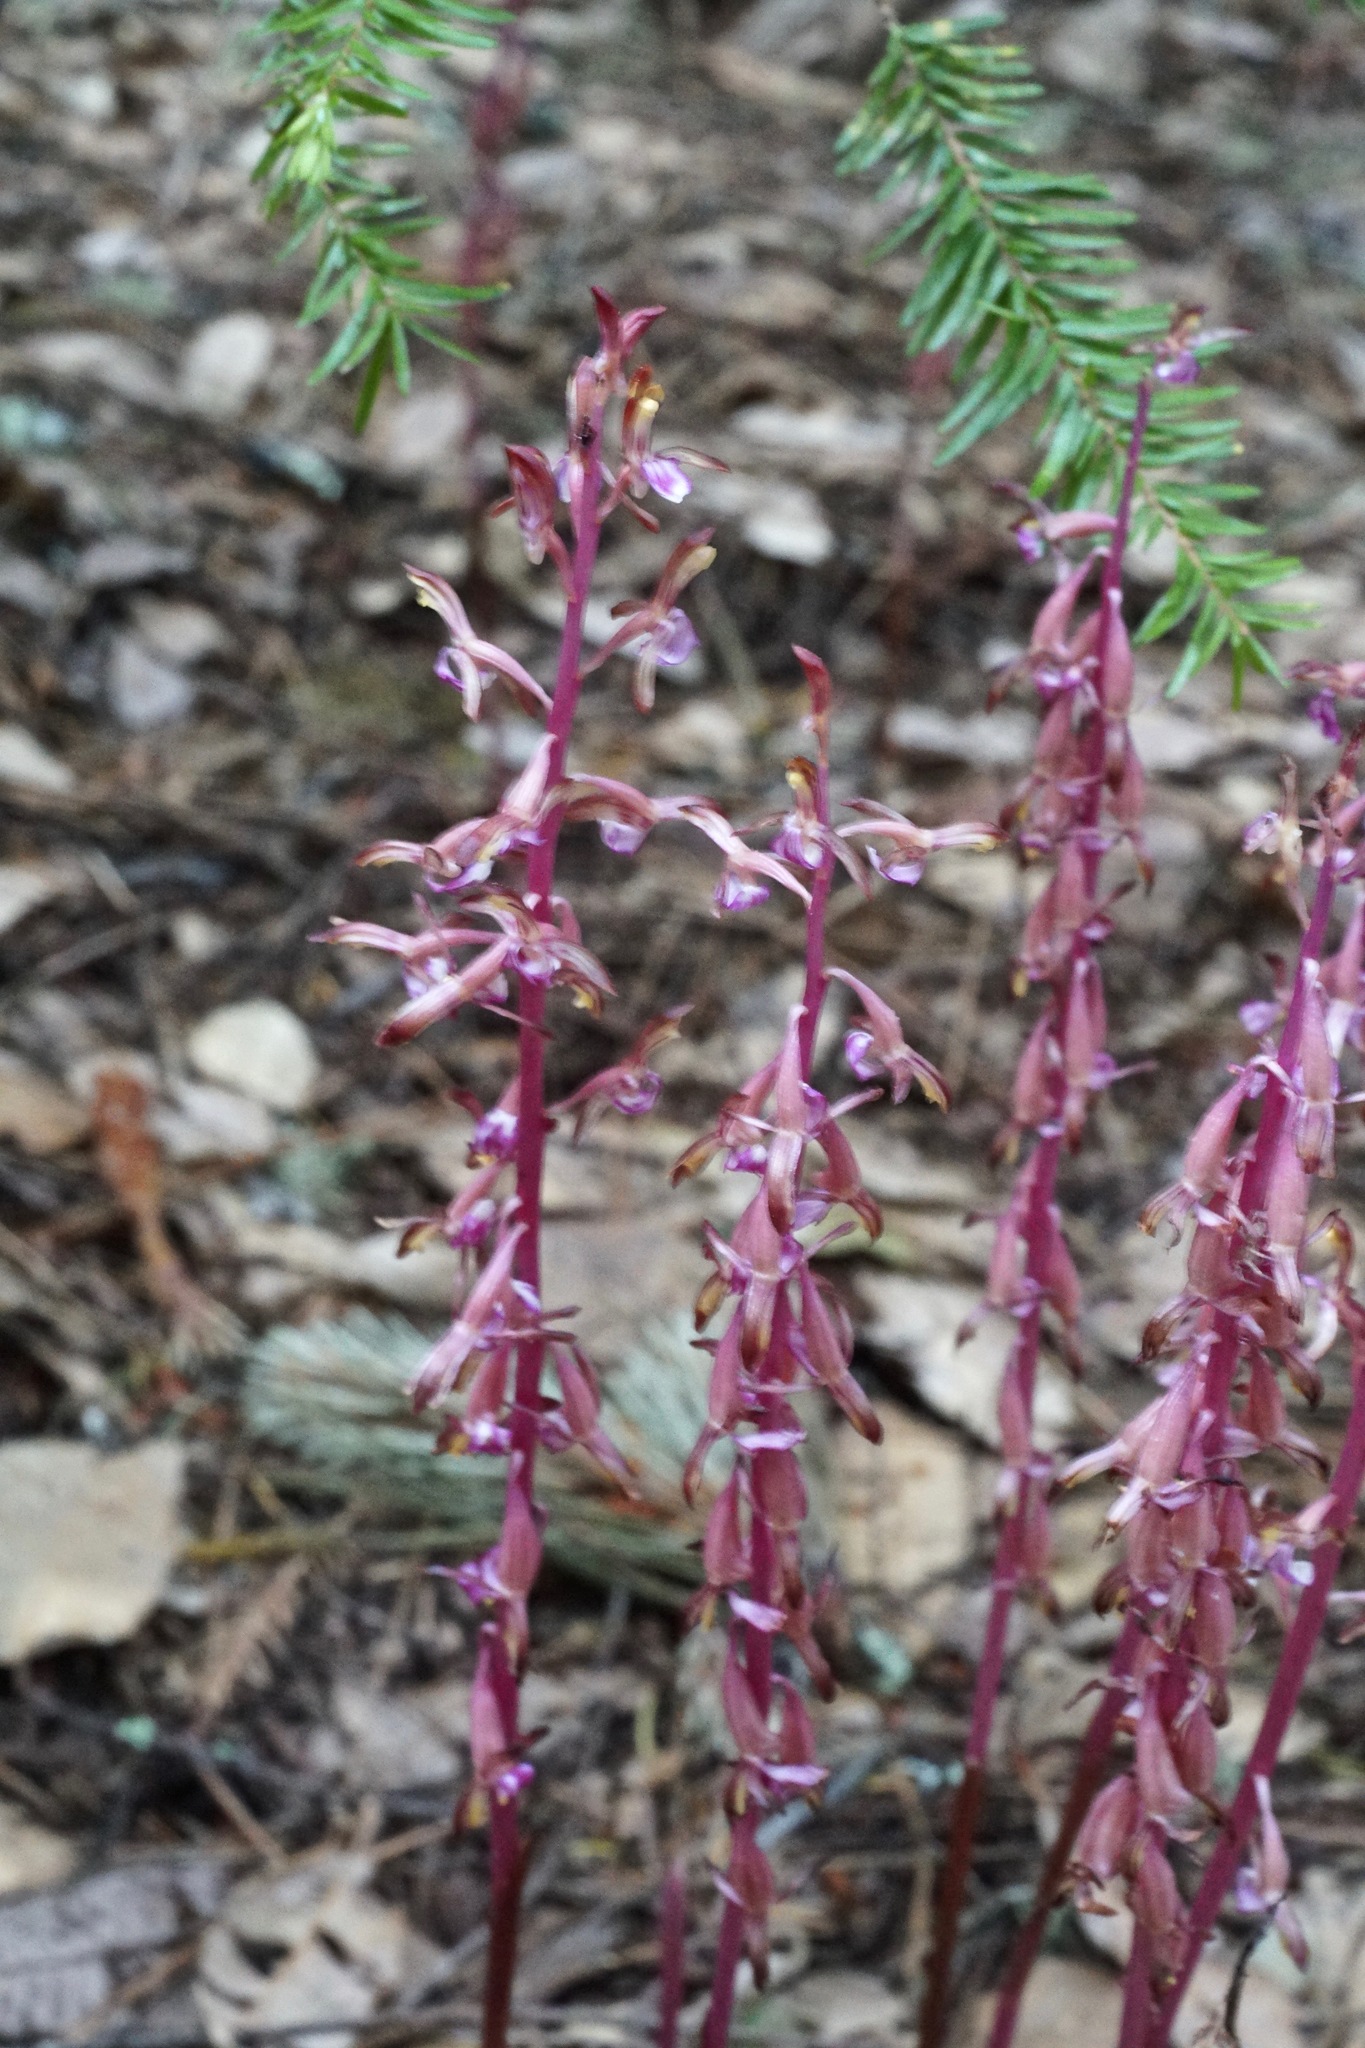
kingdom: Plantae
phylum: Tracheophyta
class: Liliopsida
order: Asparagales
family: Orchidaceae
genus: Corallorhiza
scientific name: Corallorhiza mertensiana
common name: Pacific coralroot
